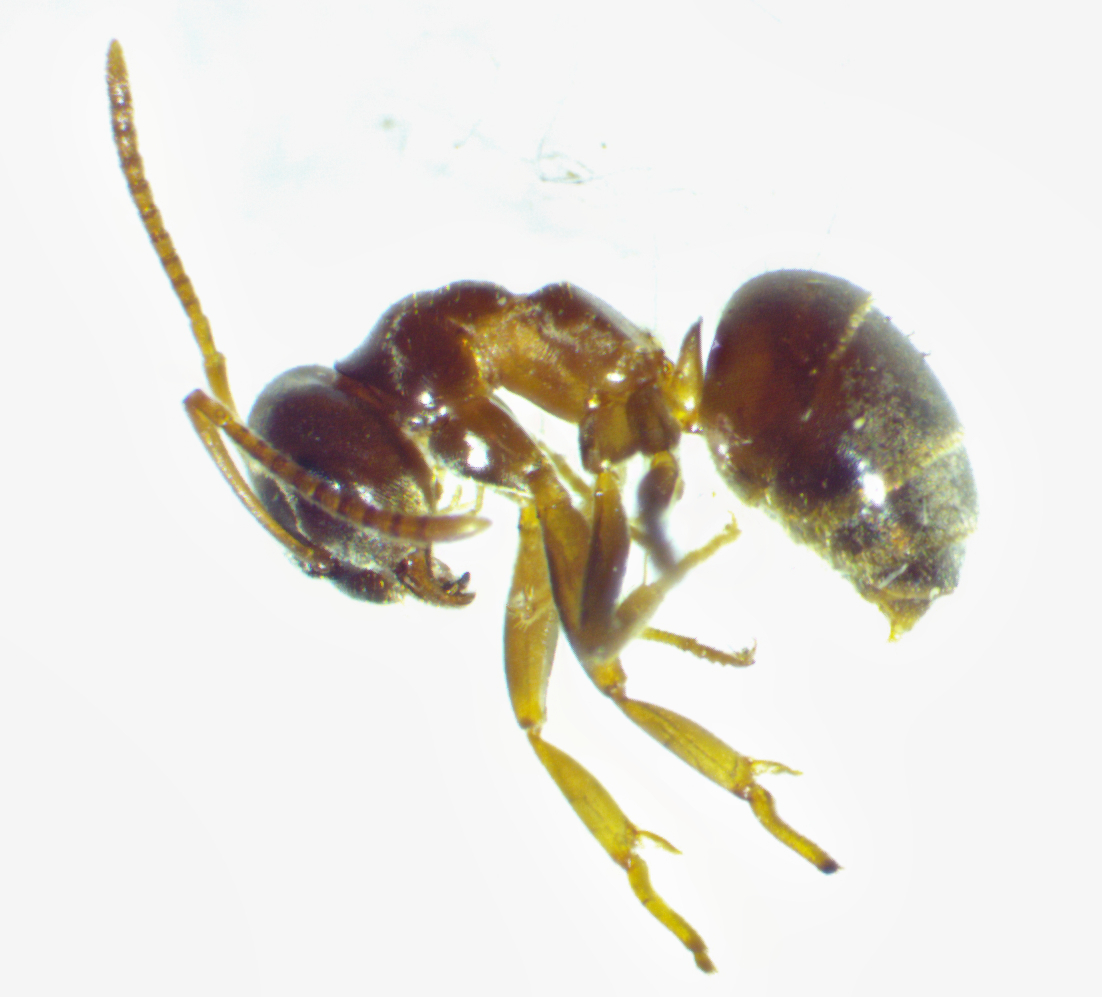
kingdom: Animalia
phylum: Arthropoda
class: Insecta
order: Hymenoptera
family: Formicidae
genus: Lasius
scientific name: Lasius neoniger
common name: Turfgrass ant
